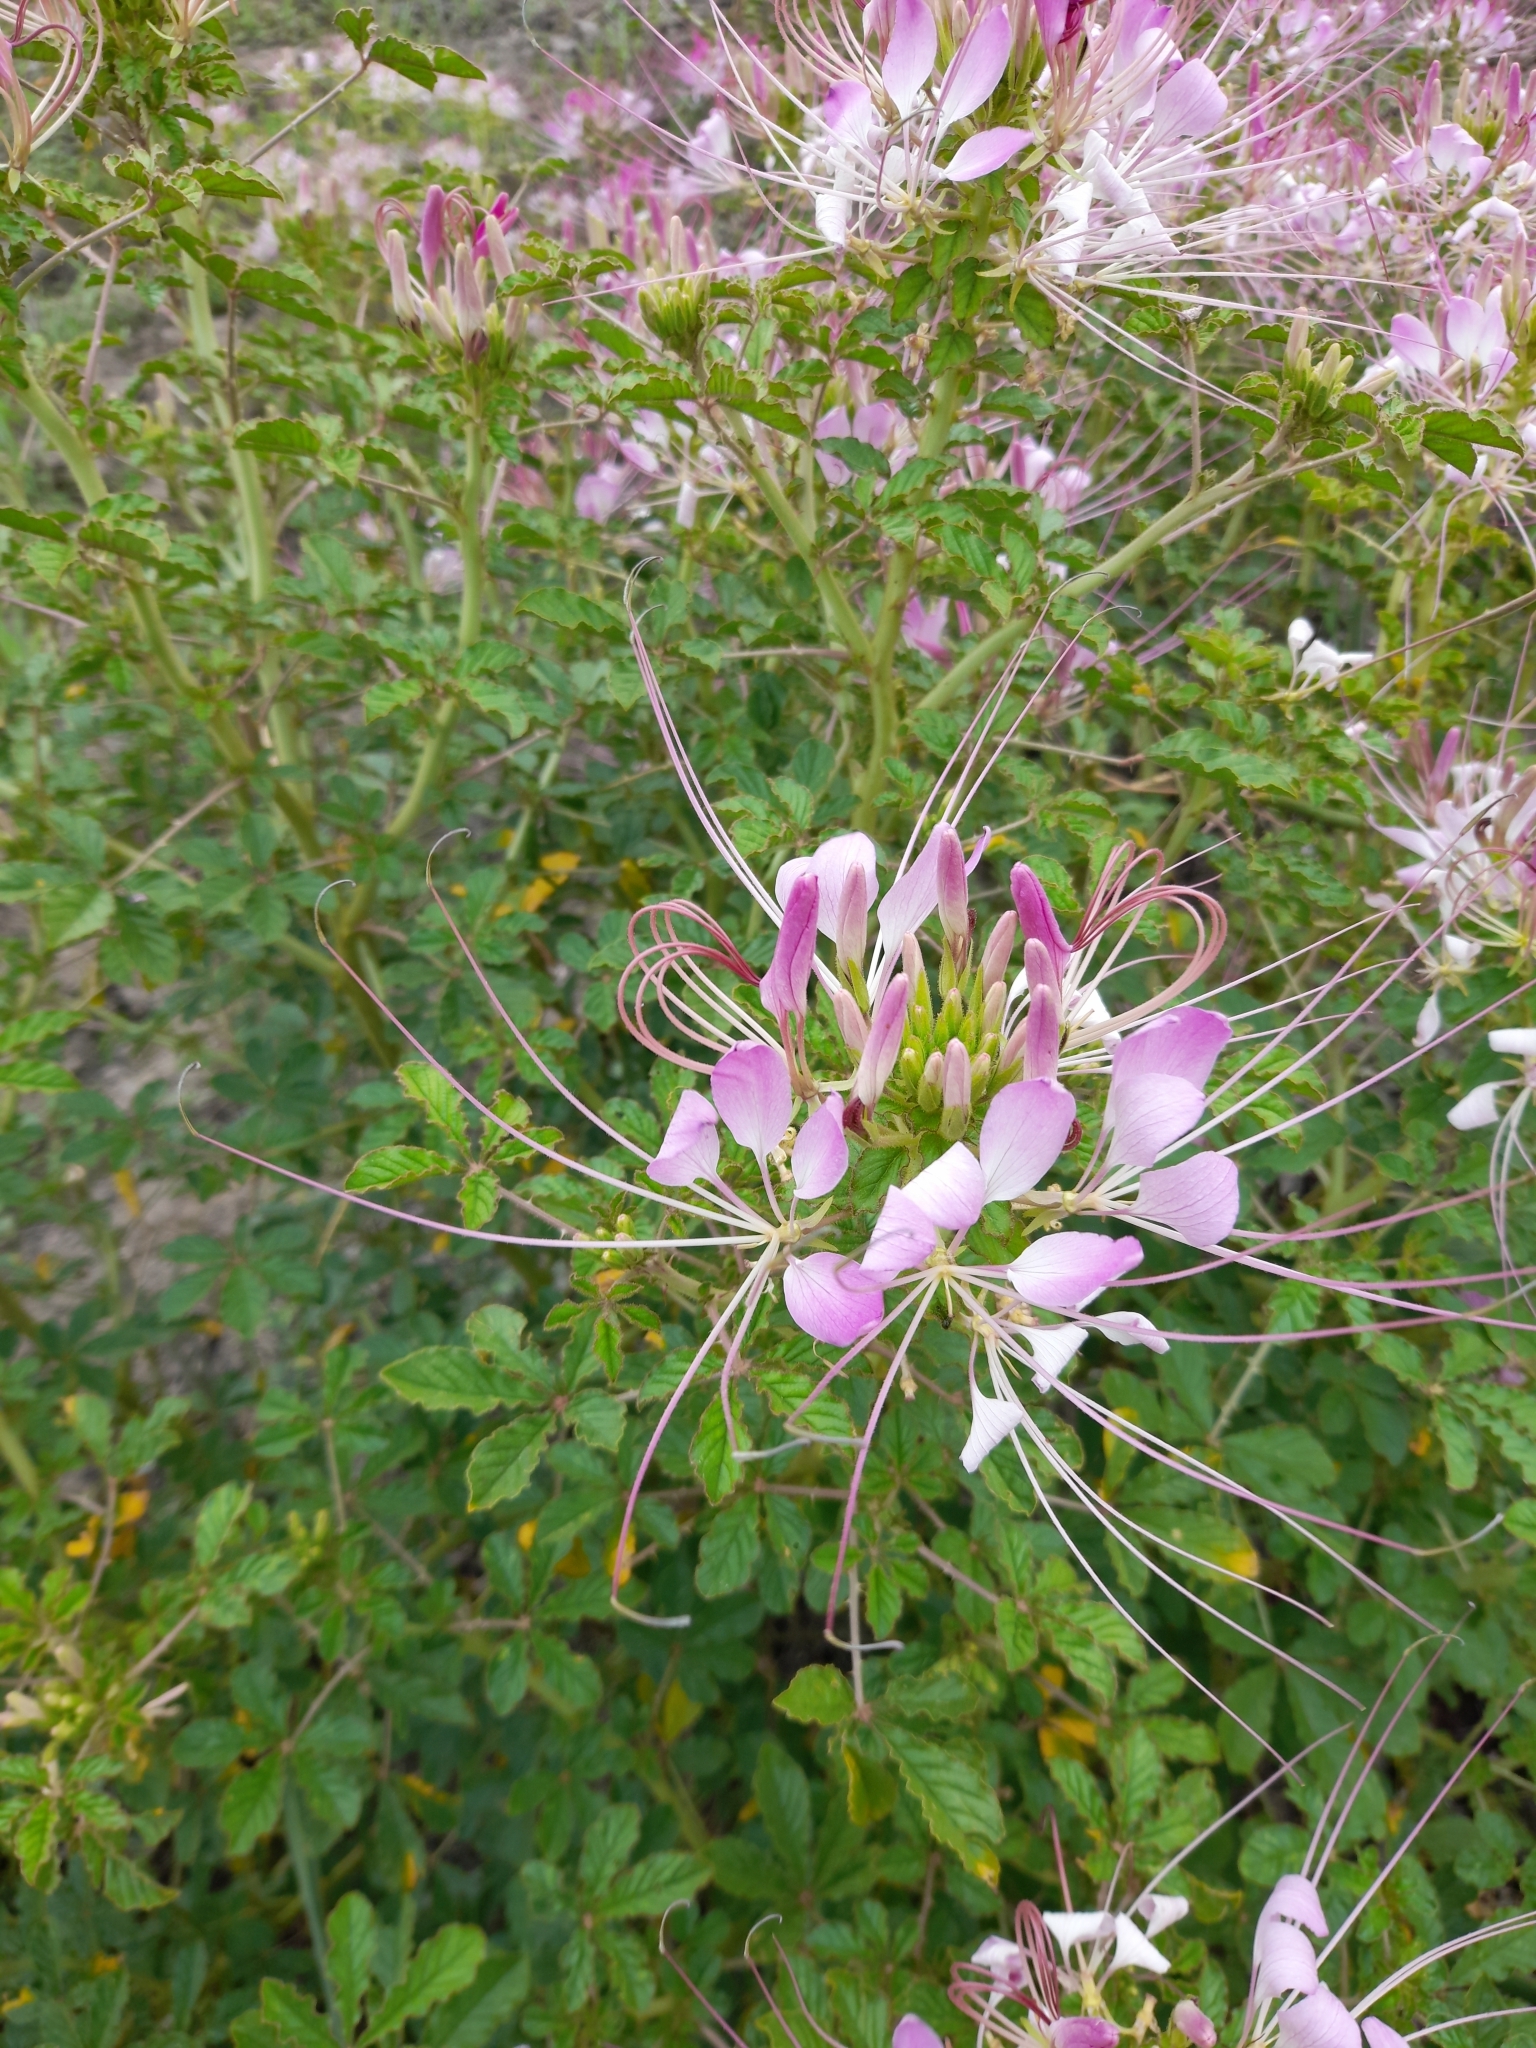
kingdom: Plantae
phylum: Tracheophyta
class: Magnoliopsida
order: Brassicales
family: Cleomaceae
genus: Tarenaya
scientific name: Tarenaya houtteana
